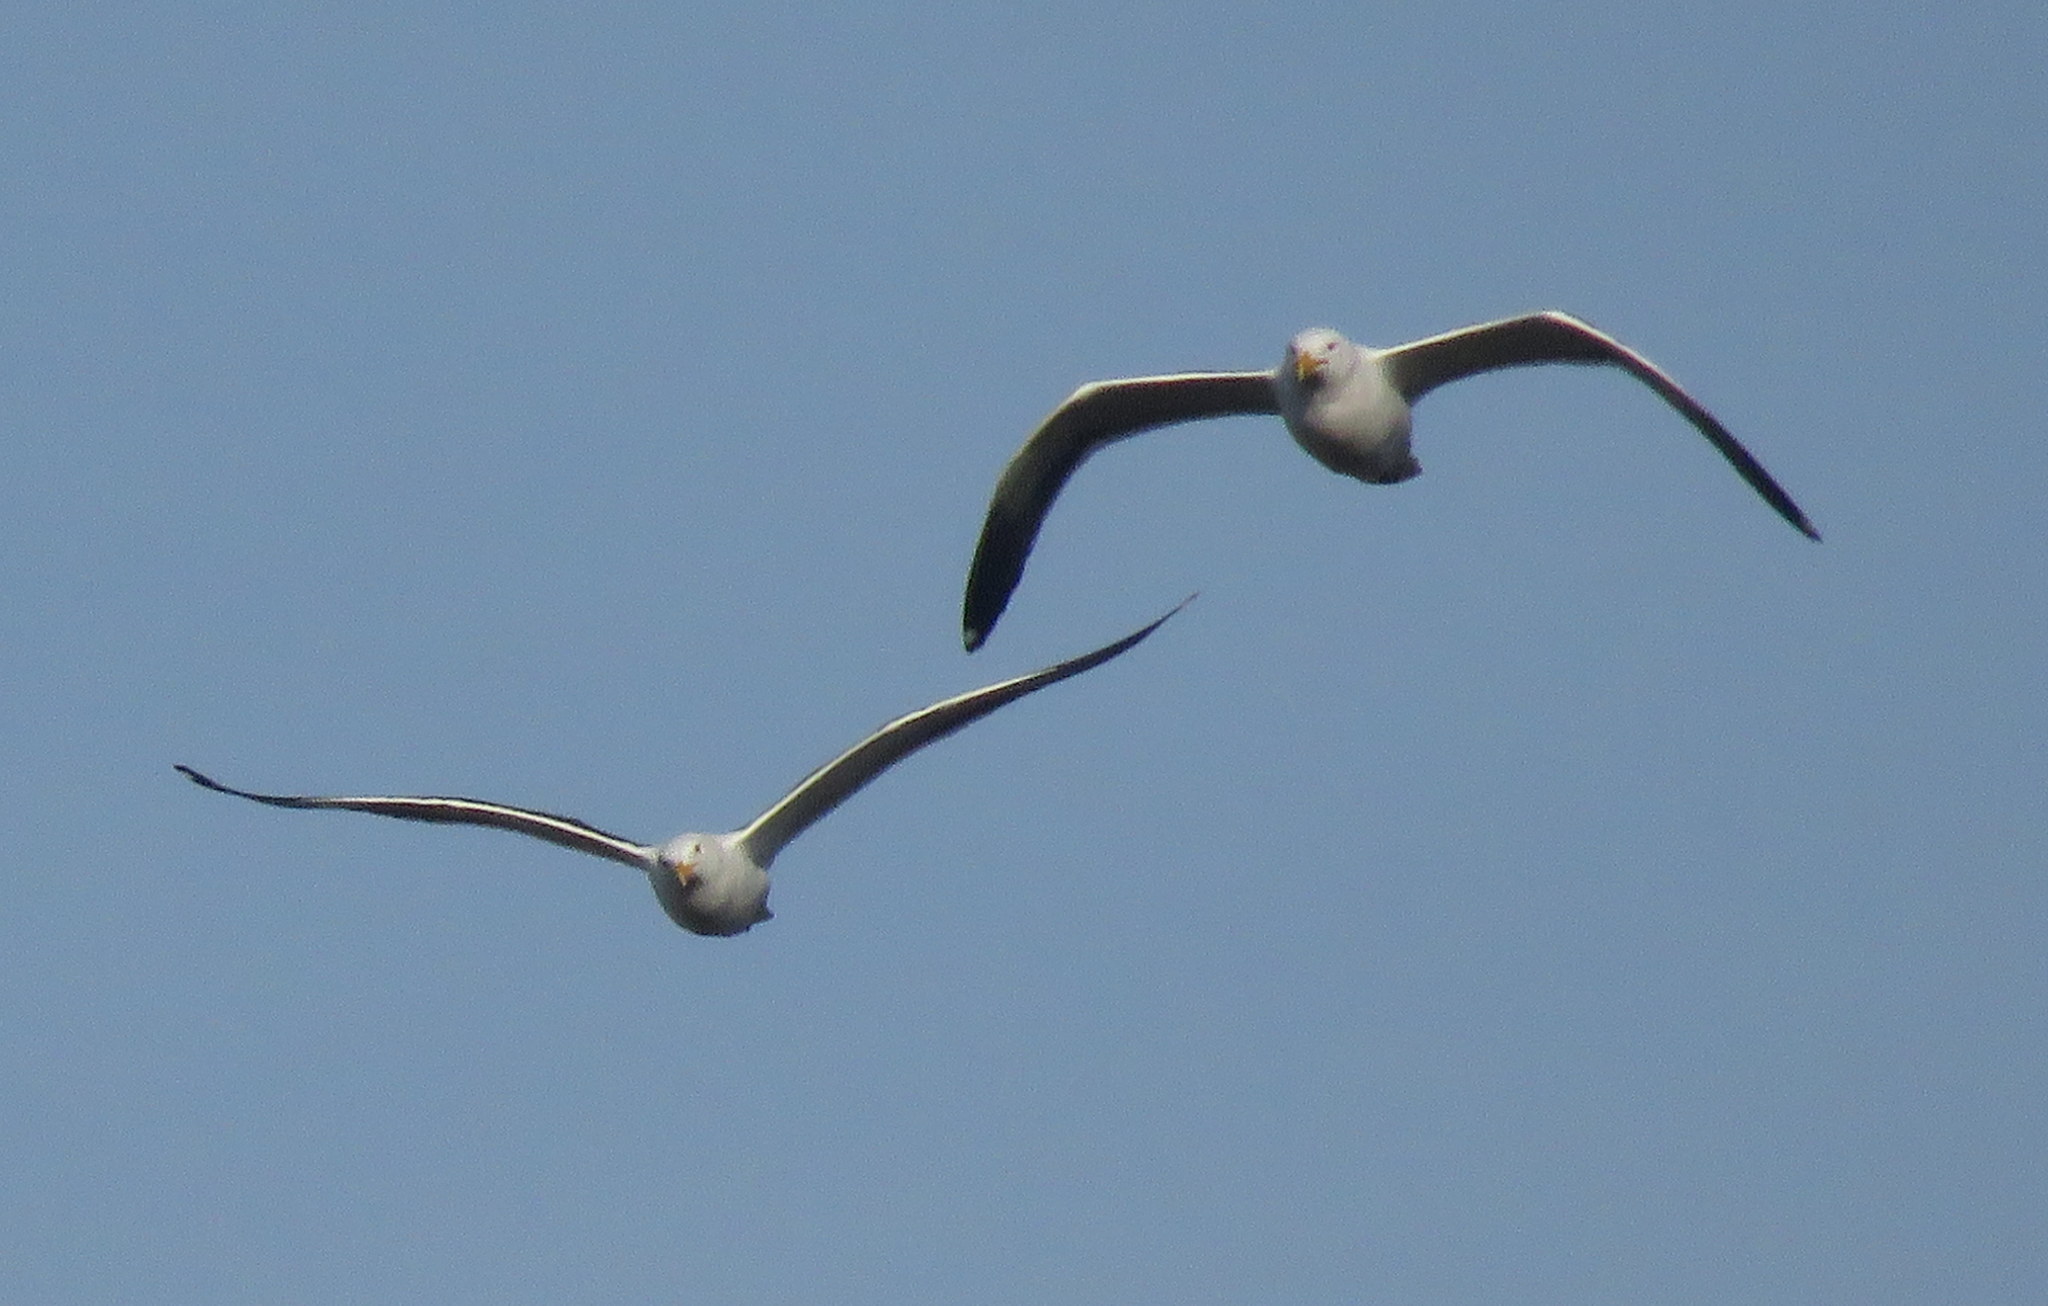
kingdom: Animalia
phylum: Chordata
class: Aves
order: Charadriiformes
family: Laridae
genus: Larus
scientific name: Larus dominicanus
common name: Kelp gull
